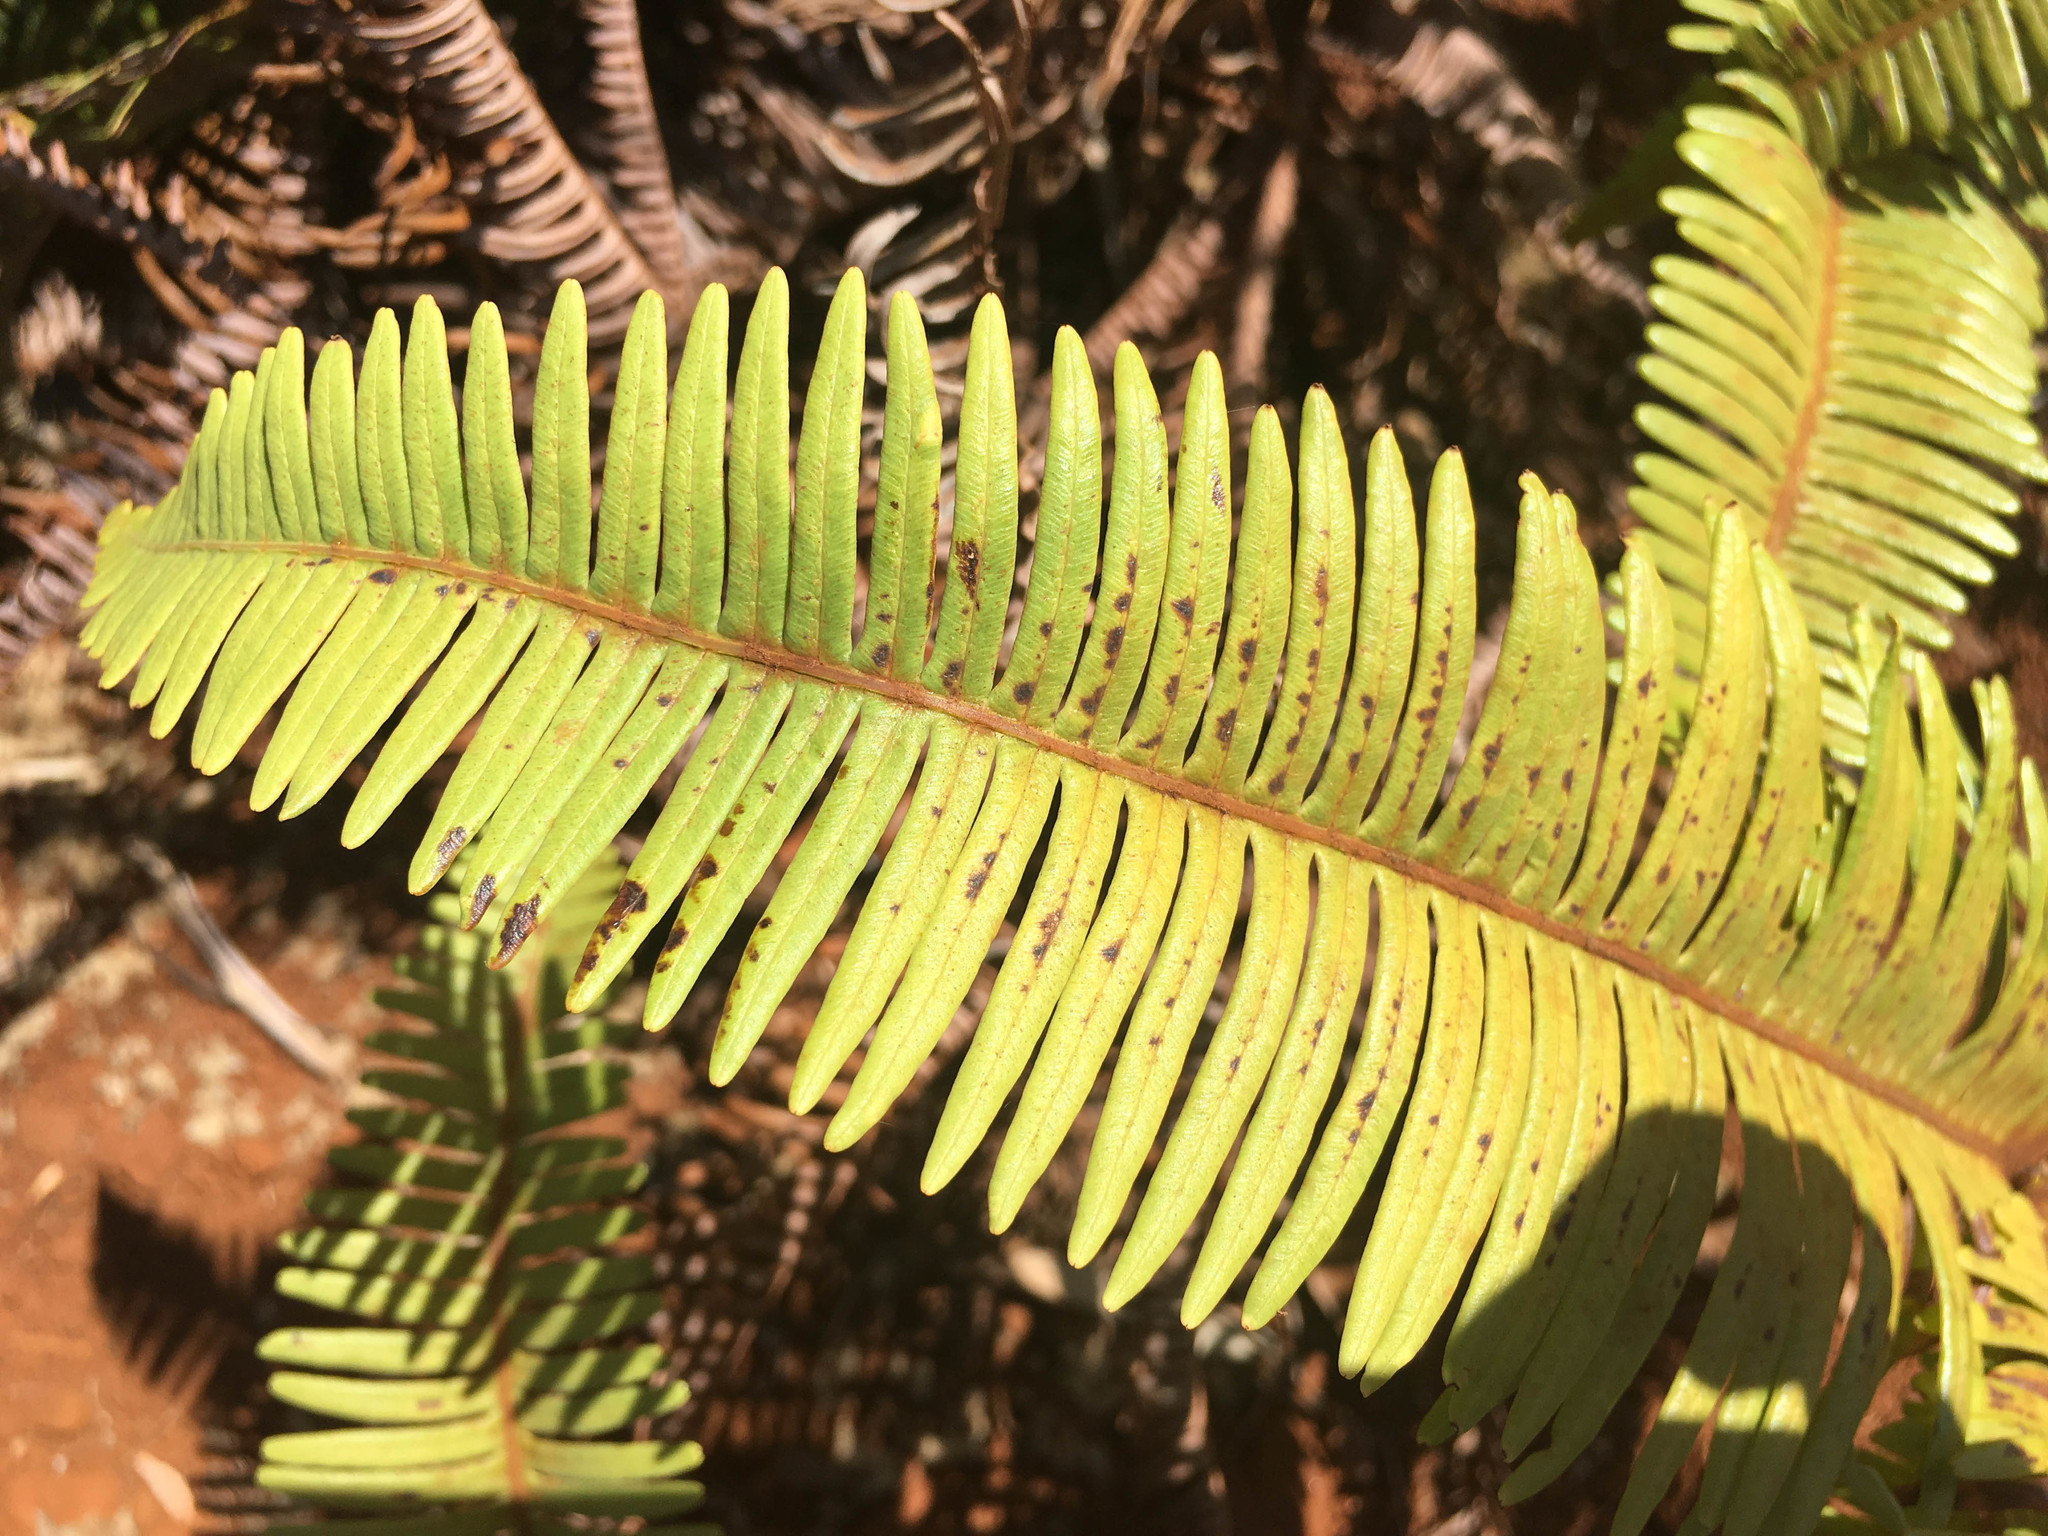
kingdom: Plantae
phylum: Tracheophyta
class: Polypodiopsida
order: Gleicheniales
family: Gleicheniaceae
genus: Dicranopteris
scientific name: Dicranopteris linearis
